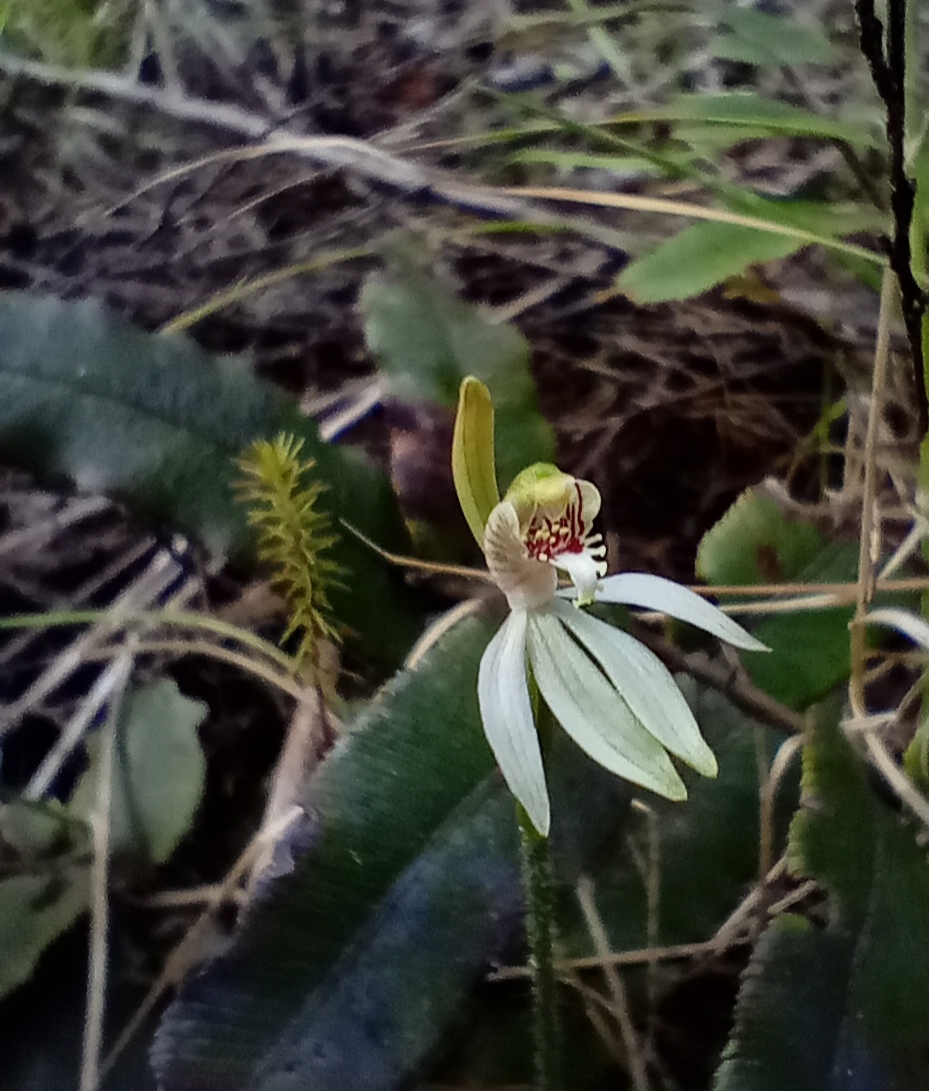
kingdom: Plantae
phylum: Tracheophyta
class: Liliopsida
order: Asparagales
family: Orchidaceae
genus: Caladenia
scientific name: Caladenia chlorostyla
